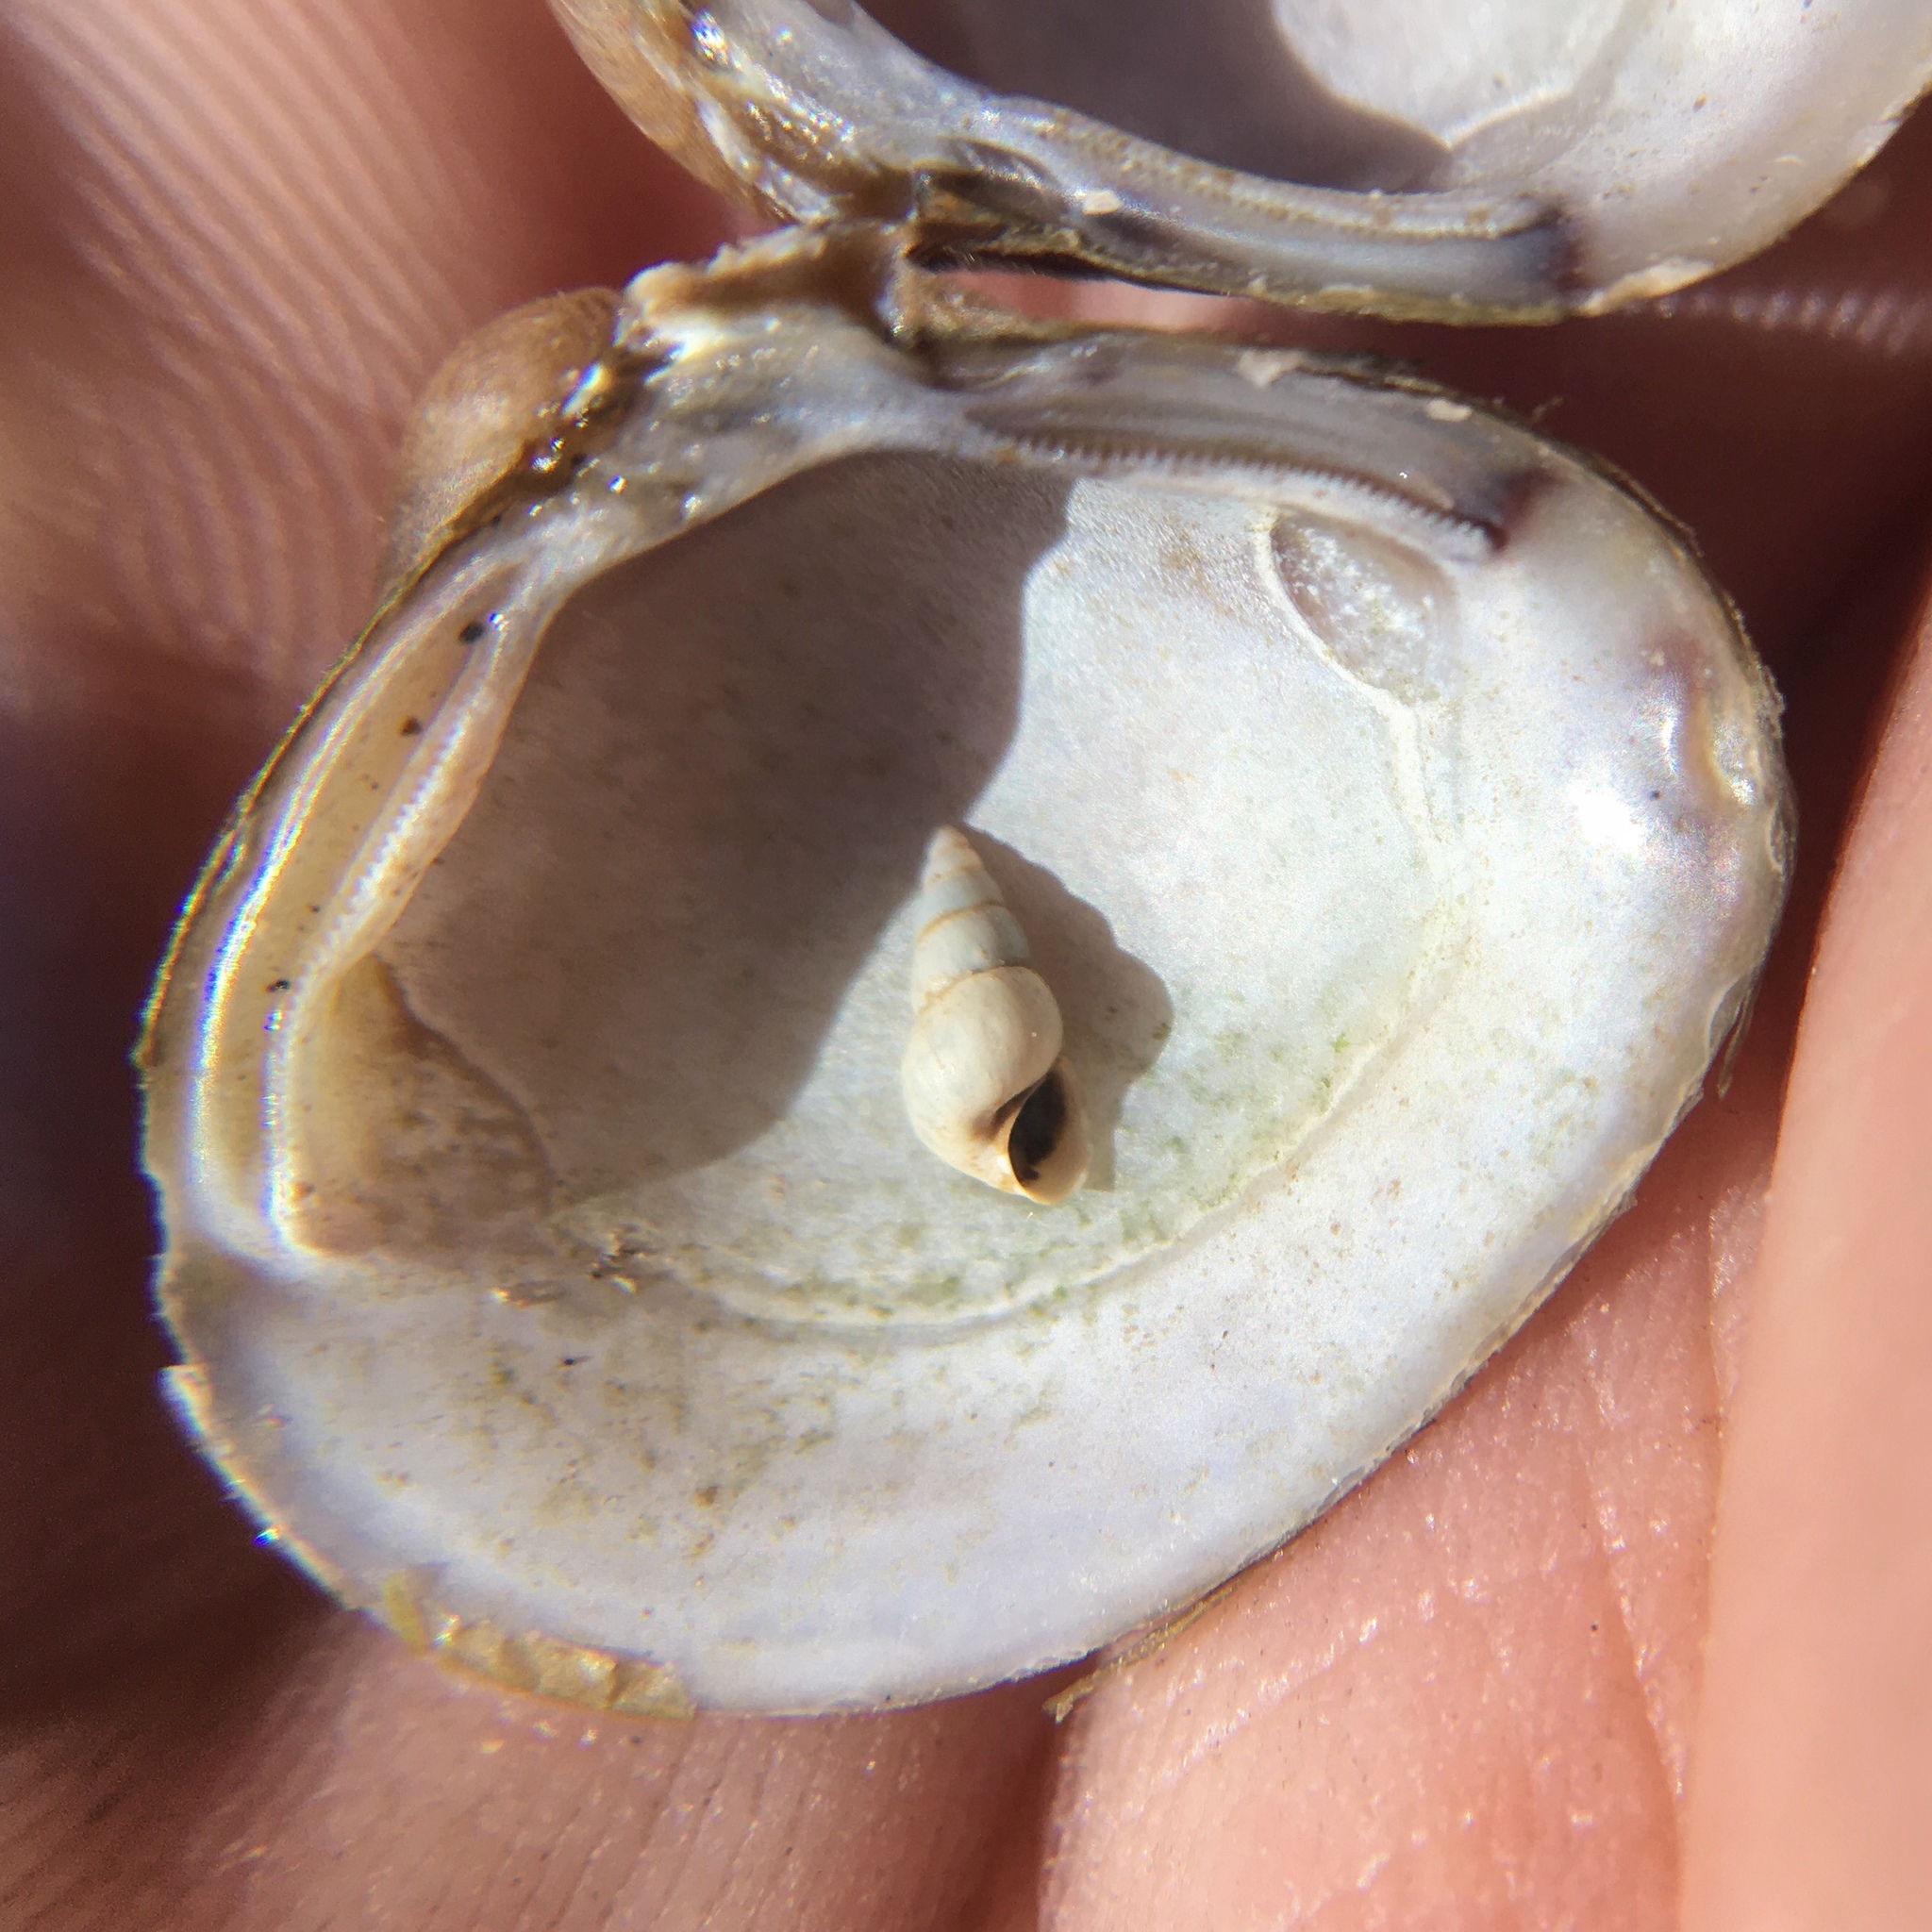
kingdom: Animalia
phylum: Mollusca
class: Gastropoda
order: Littorinimorpha
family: Cochliopidae
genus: Heleobia
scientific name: Heleobia parchappii
